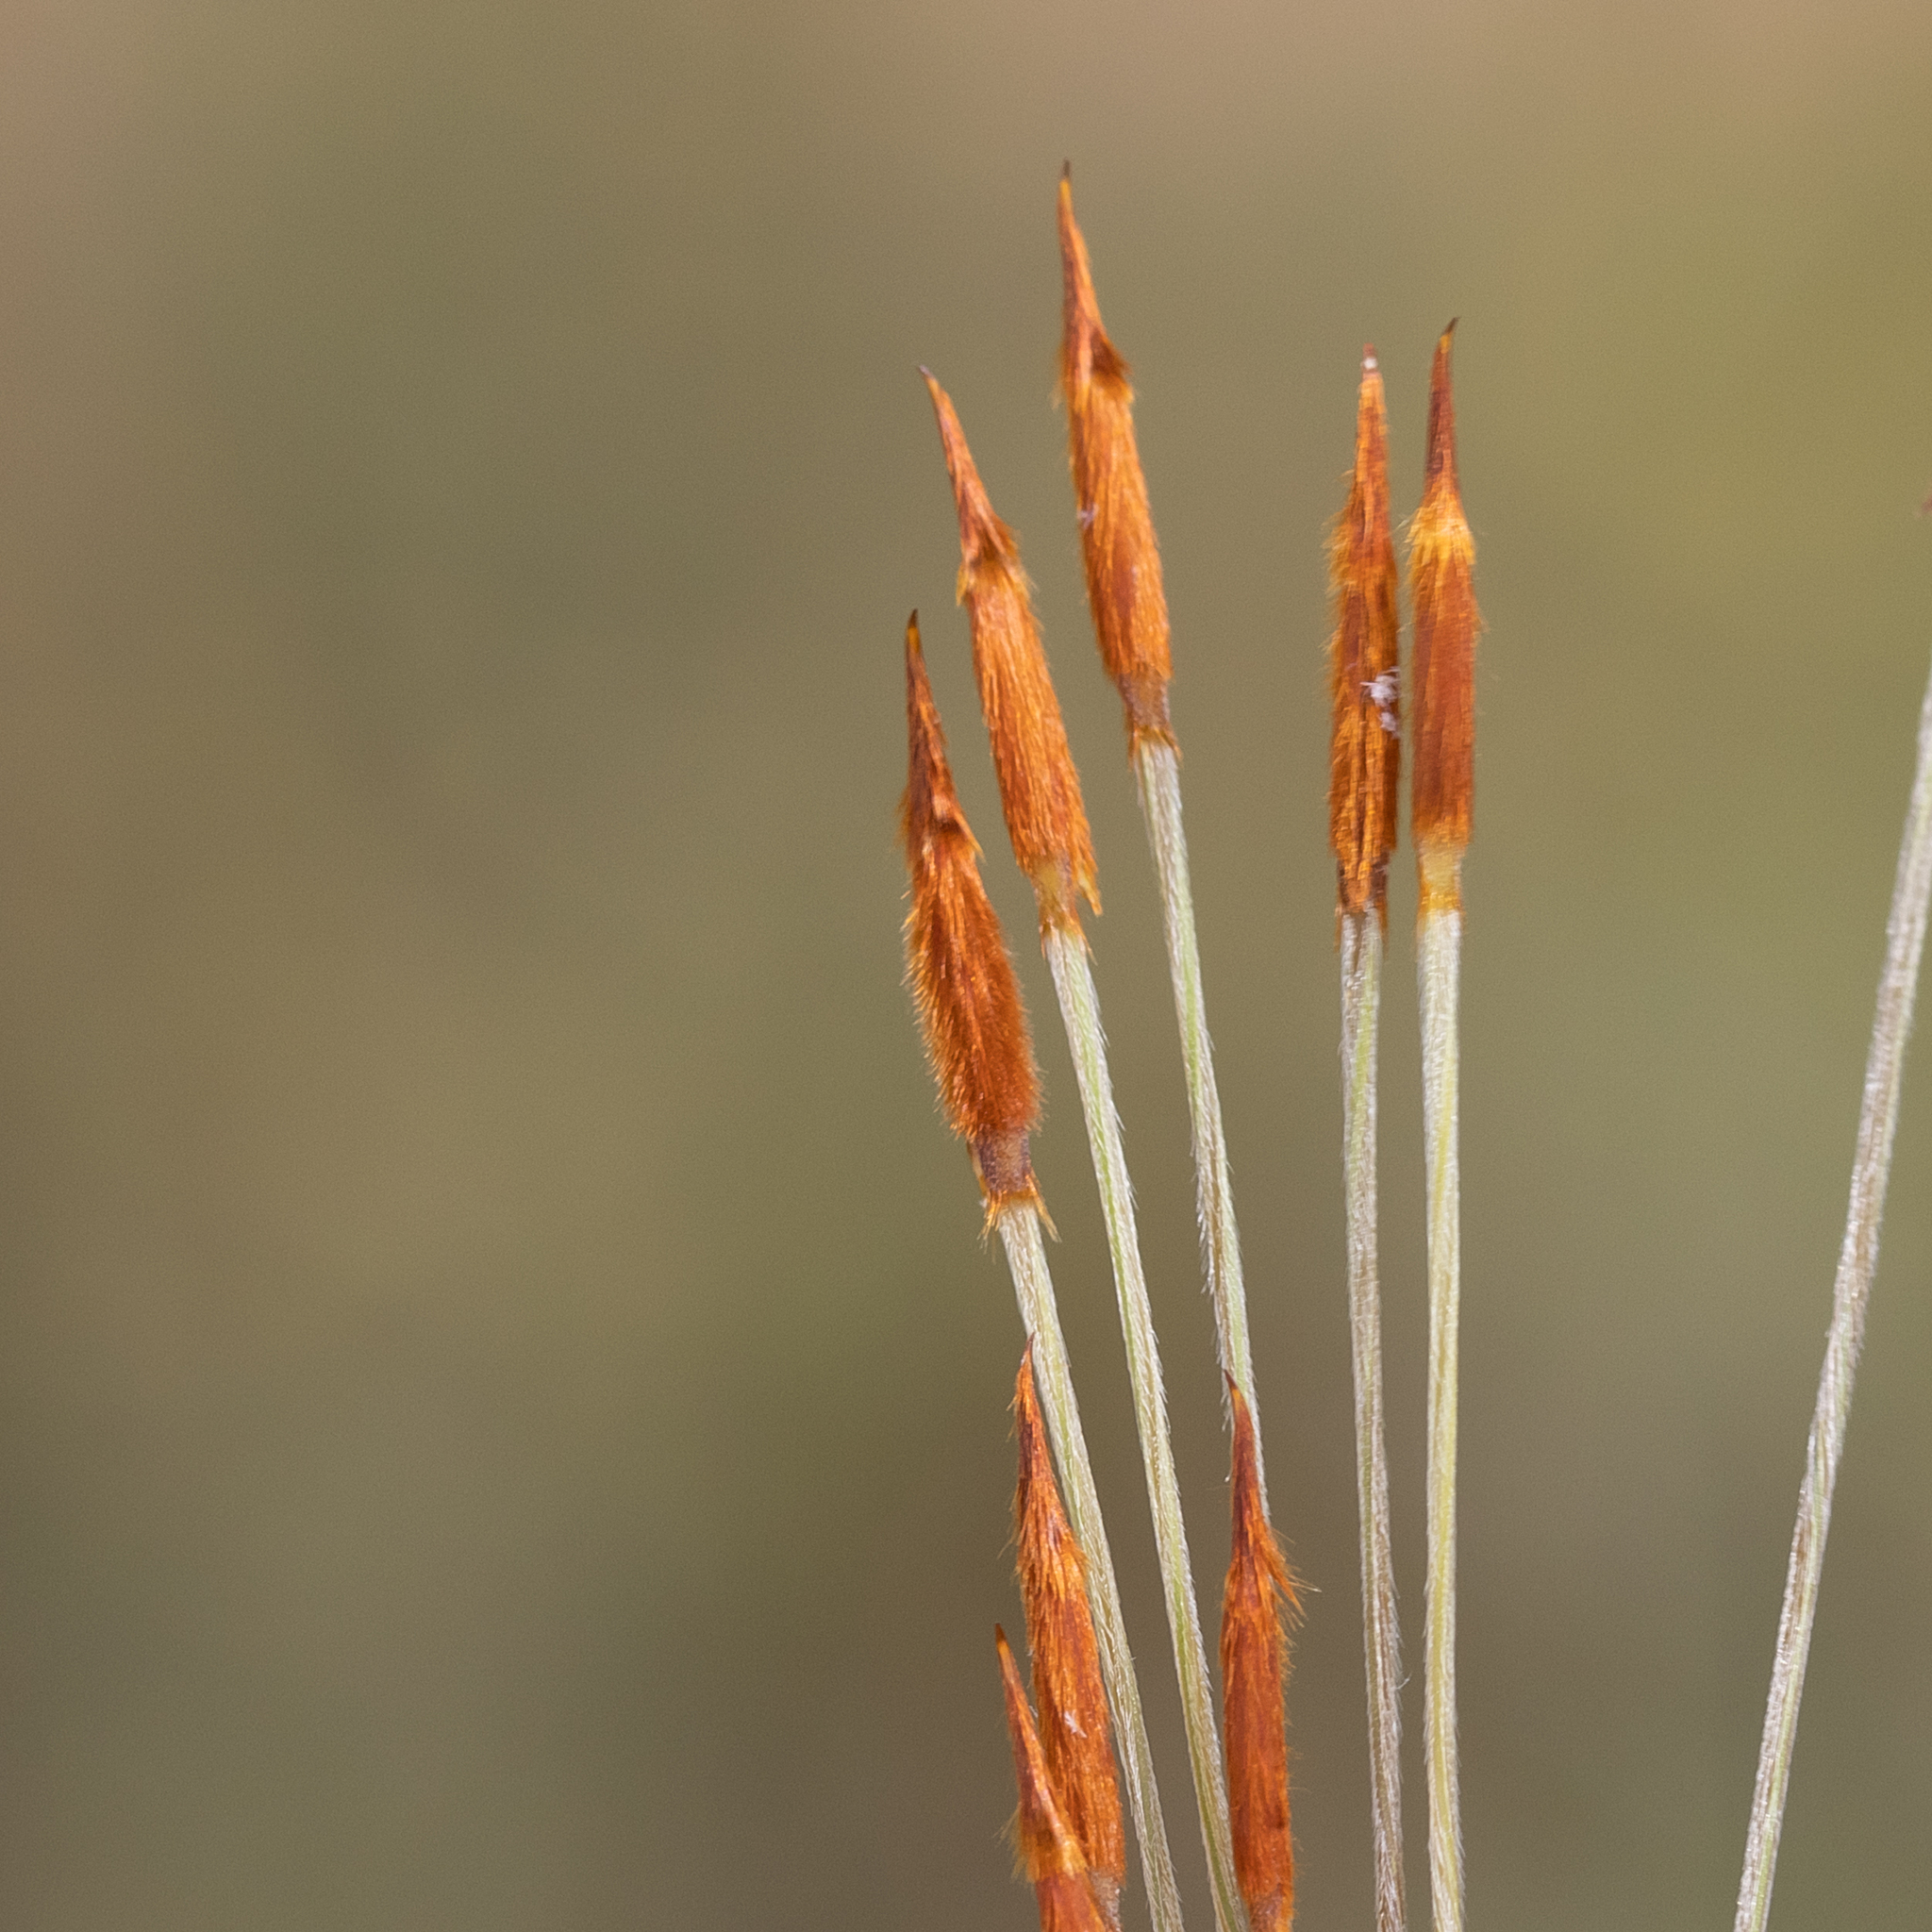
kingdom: Plantae
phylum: Tracheophyta
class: Liliopsida
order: Poales
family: Poaceae
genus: Austrostipa
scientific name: Austrostipa eremophila
